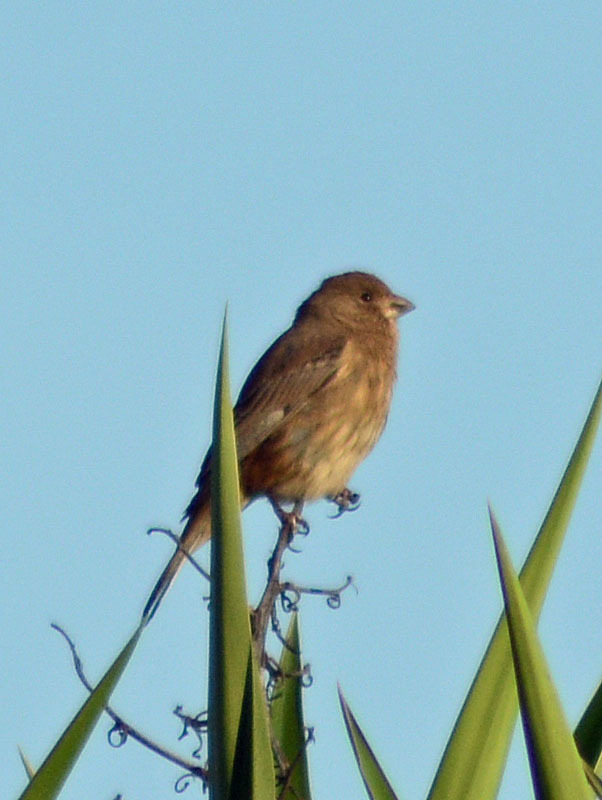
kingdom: Animalia
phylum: Chordata
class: Aves
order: Passeriformes
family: Fringillidae
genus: Haemorhous
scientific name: Haemorhous mexicanus
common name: House finch
